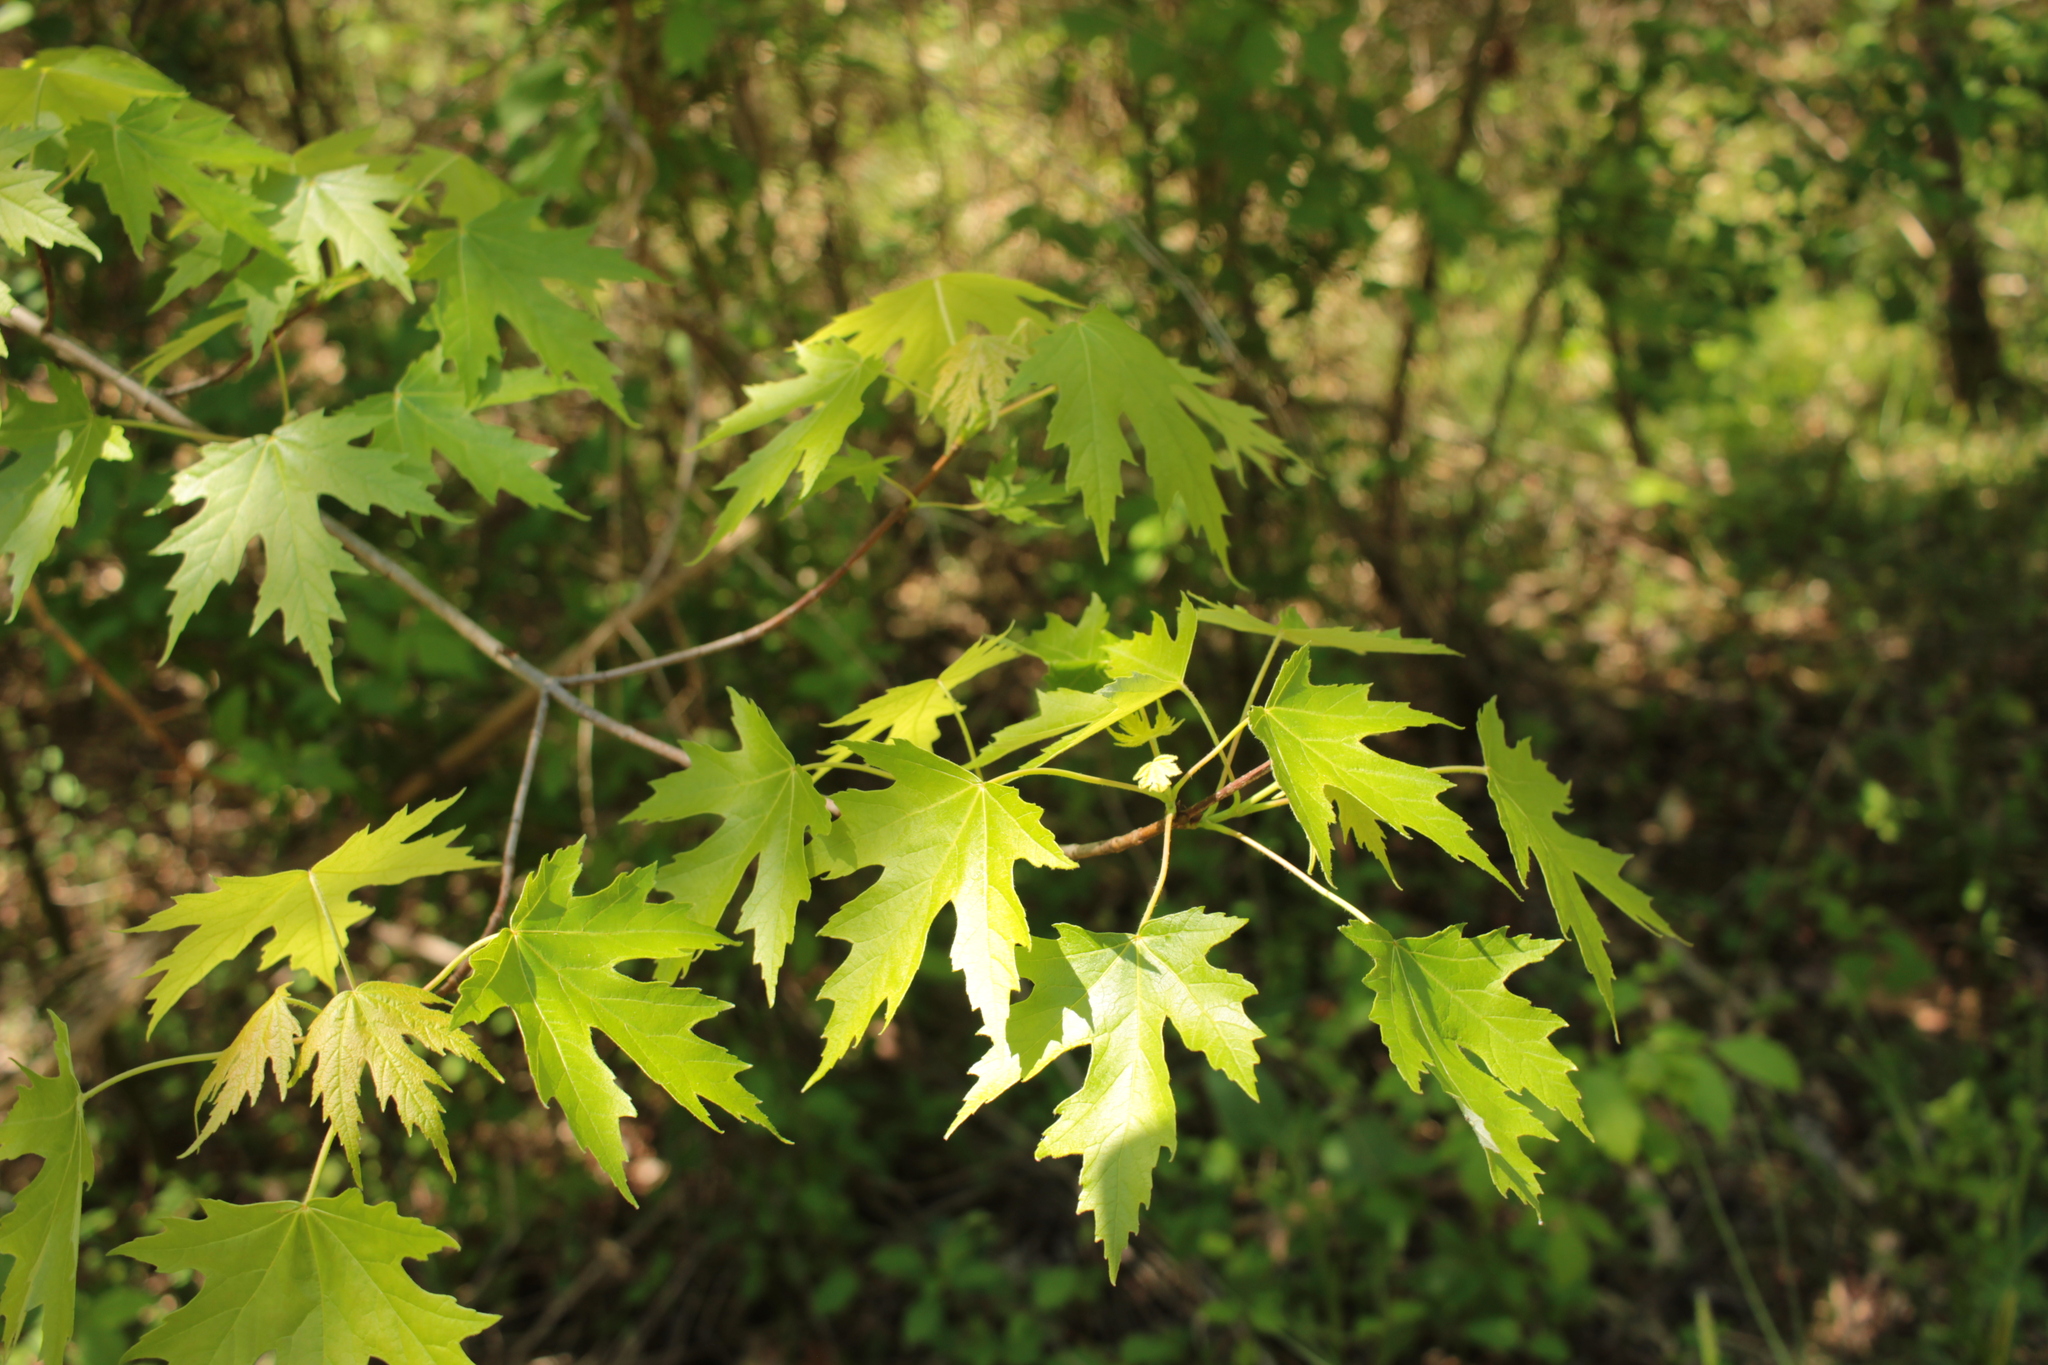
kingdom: Plantae
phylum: Tracheophyta
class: Magnoliopsida
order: Sapindales
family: Sapindaceae
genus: Acer
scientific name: Acer saccharinum
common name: Silver maple
